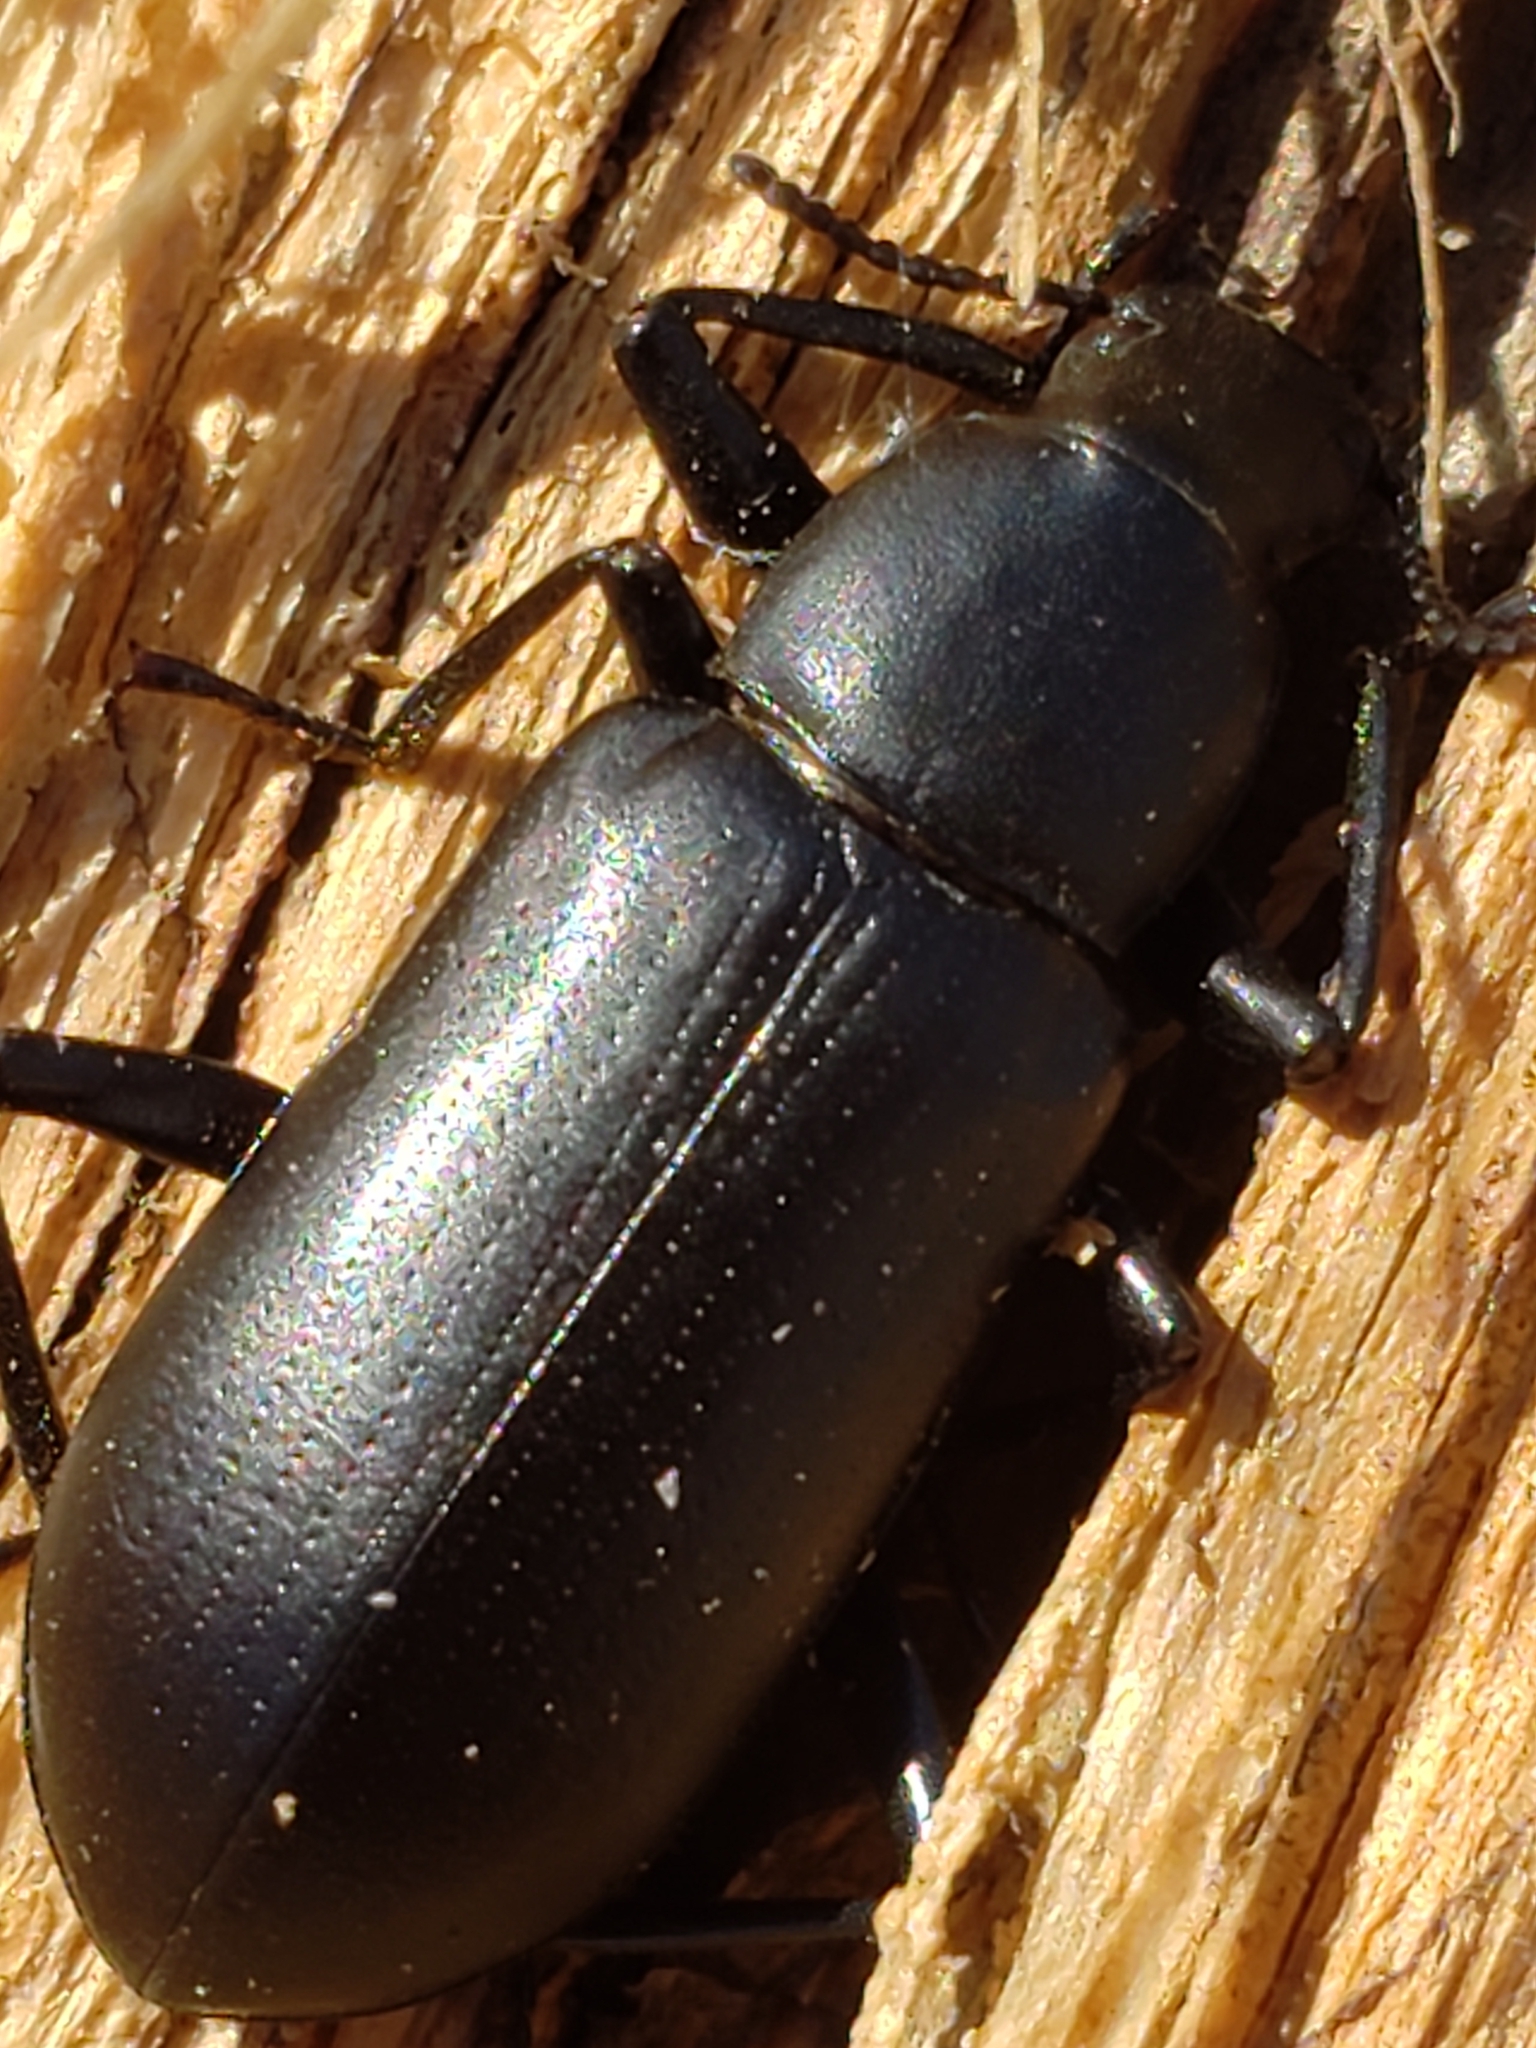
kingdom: Animalia
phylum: Arthropoda
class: Insecta
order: Coleoptera
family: Tenebrionidae
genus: Alobates
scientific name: Alobates
